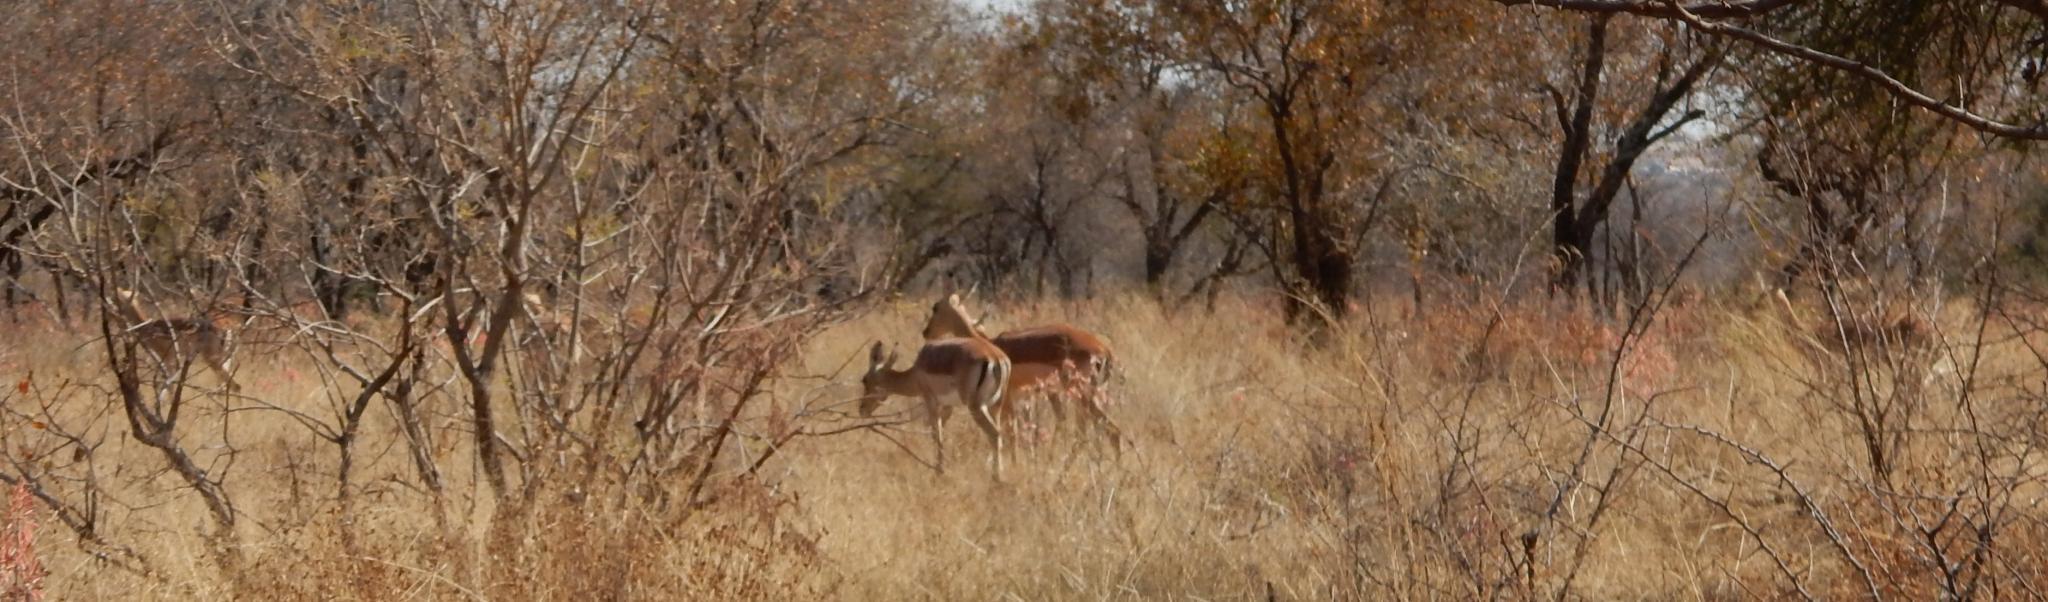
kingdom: Animalia
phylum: Chordata
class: Mammalia
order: Artiodactyla
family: Bovidae
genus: Aepyceros
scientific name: Aepyceros melampus
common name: Impala
